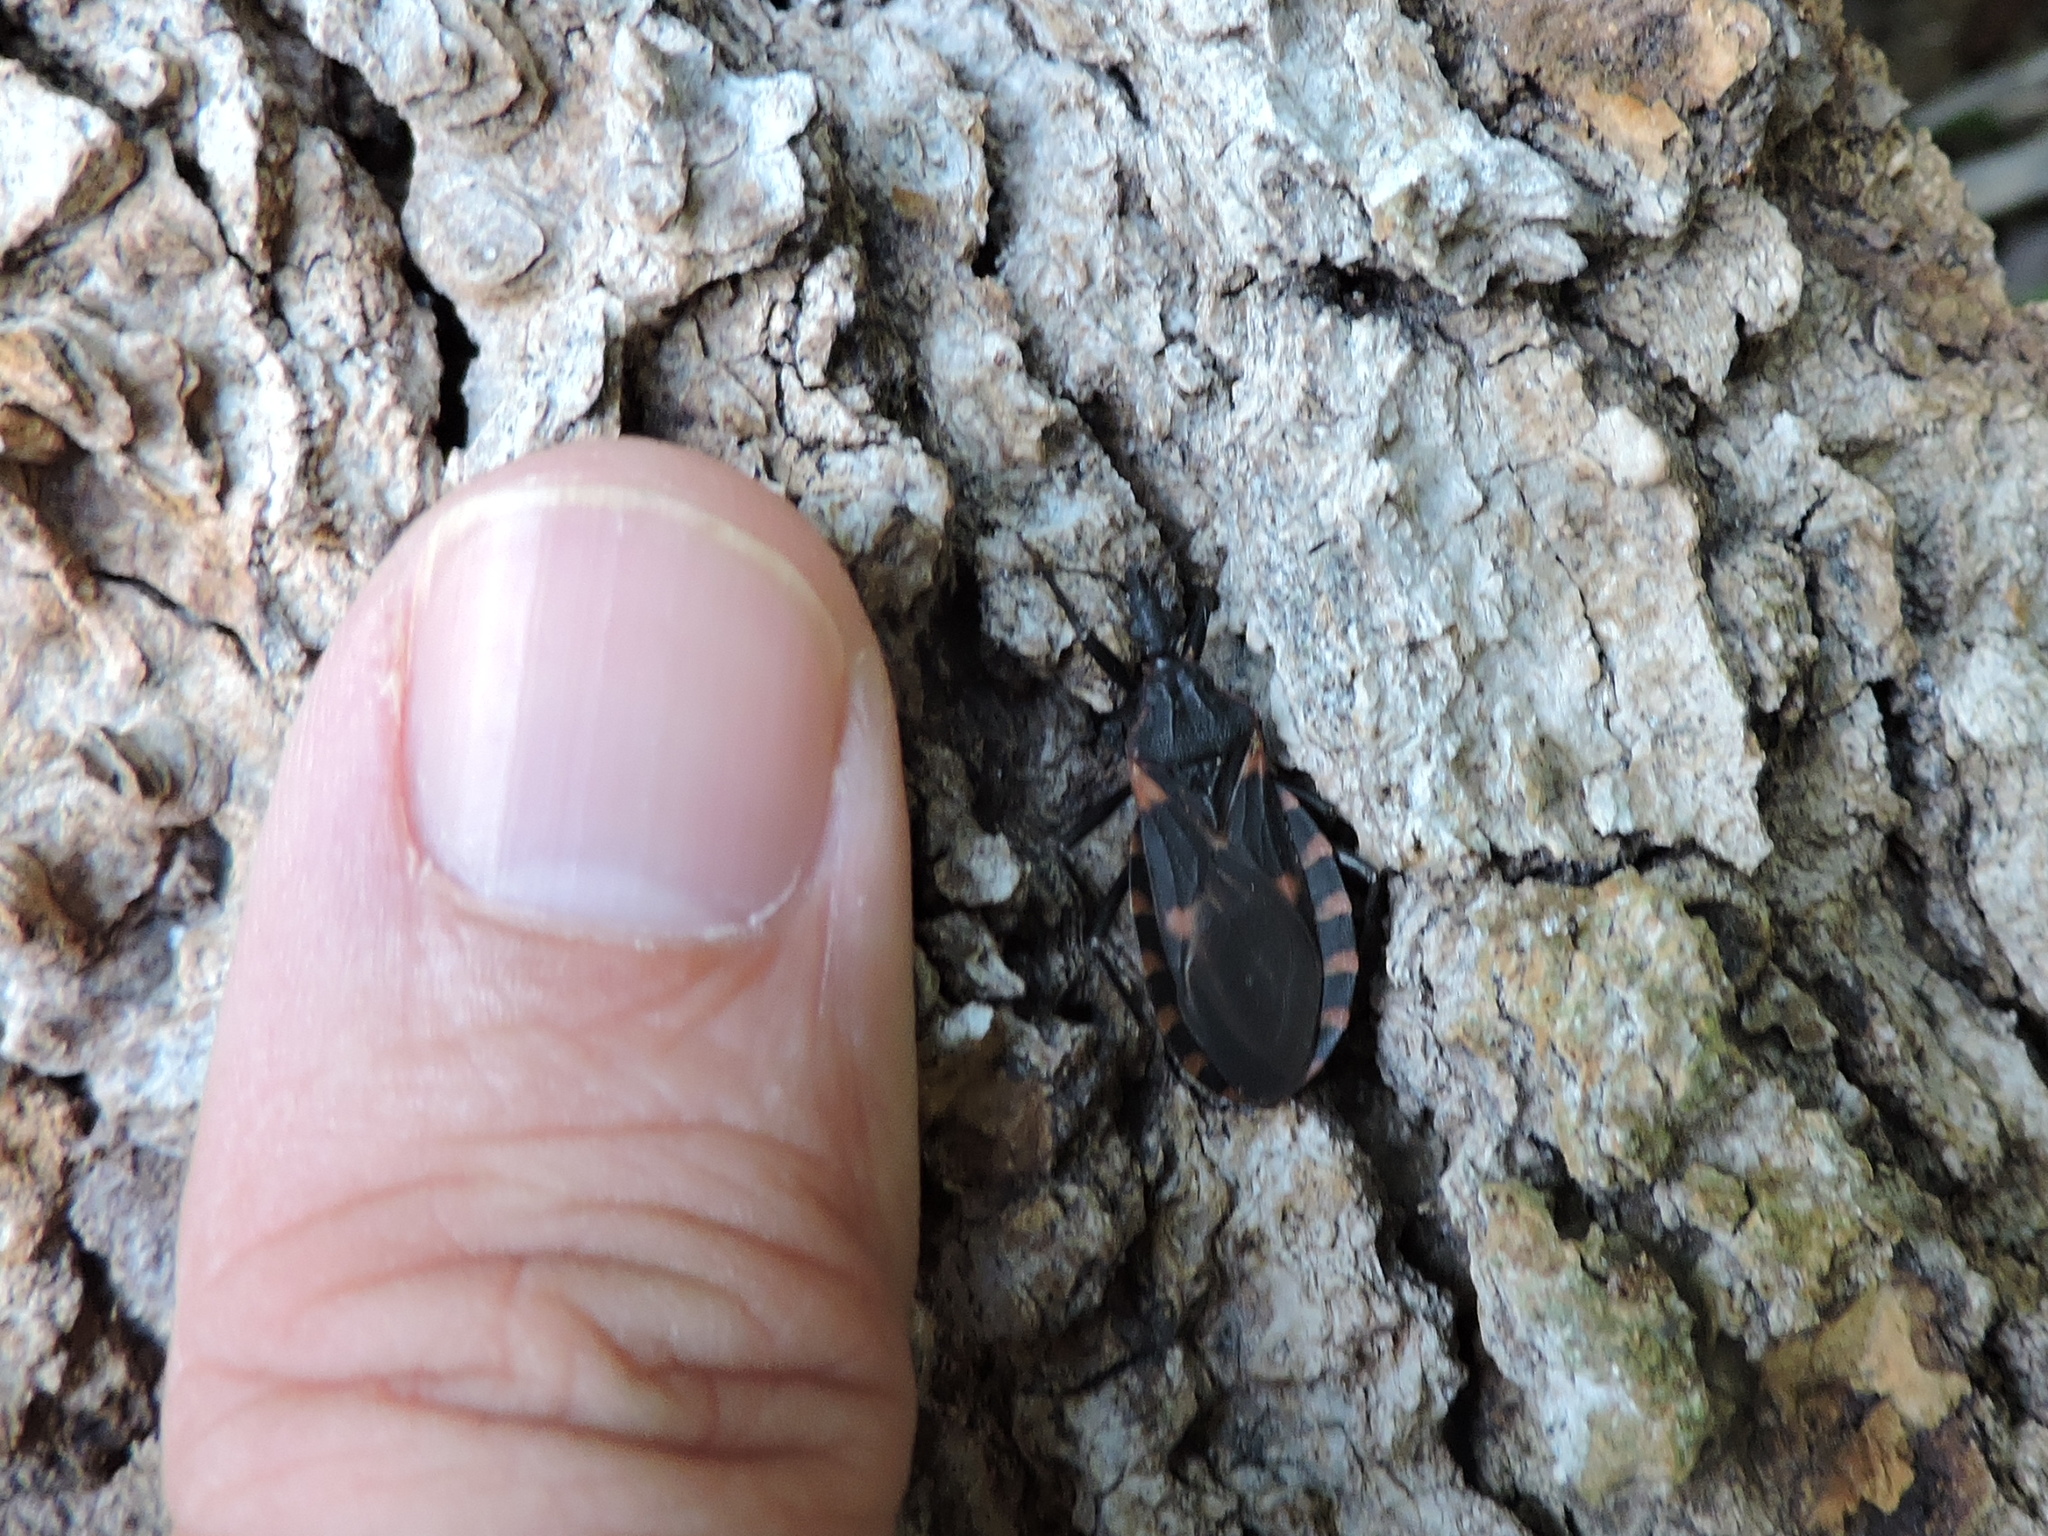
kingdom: Animalia
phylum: Arthropoda
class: Insecta
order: Hemiptera
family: Reduviidae
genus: Triatoma
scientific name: Triatoma sanguisuga
